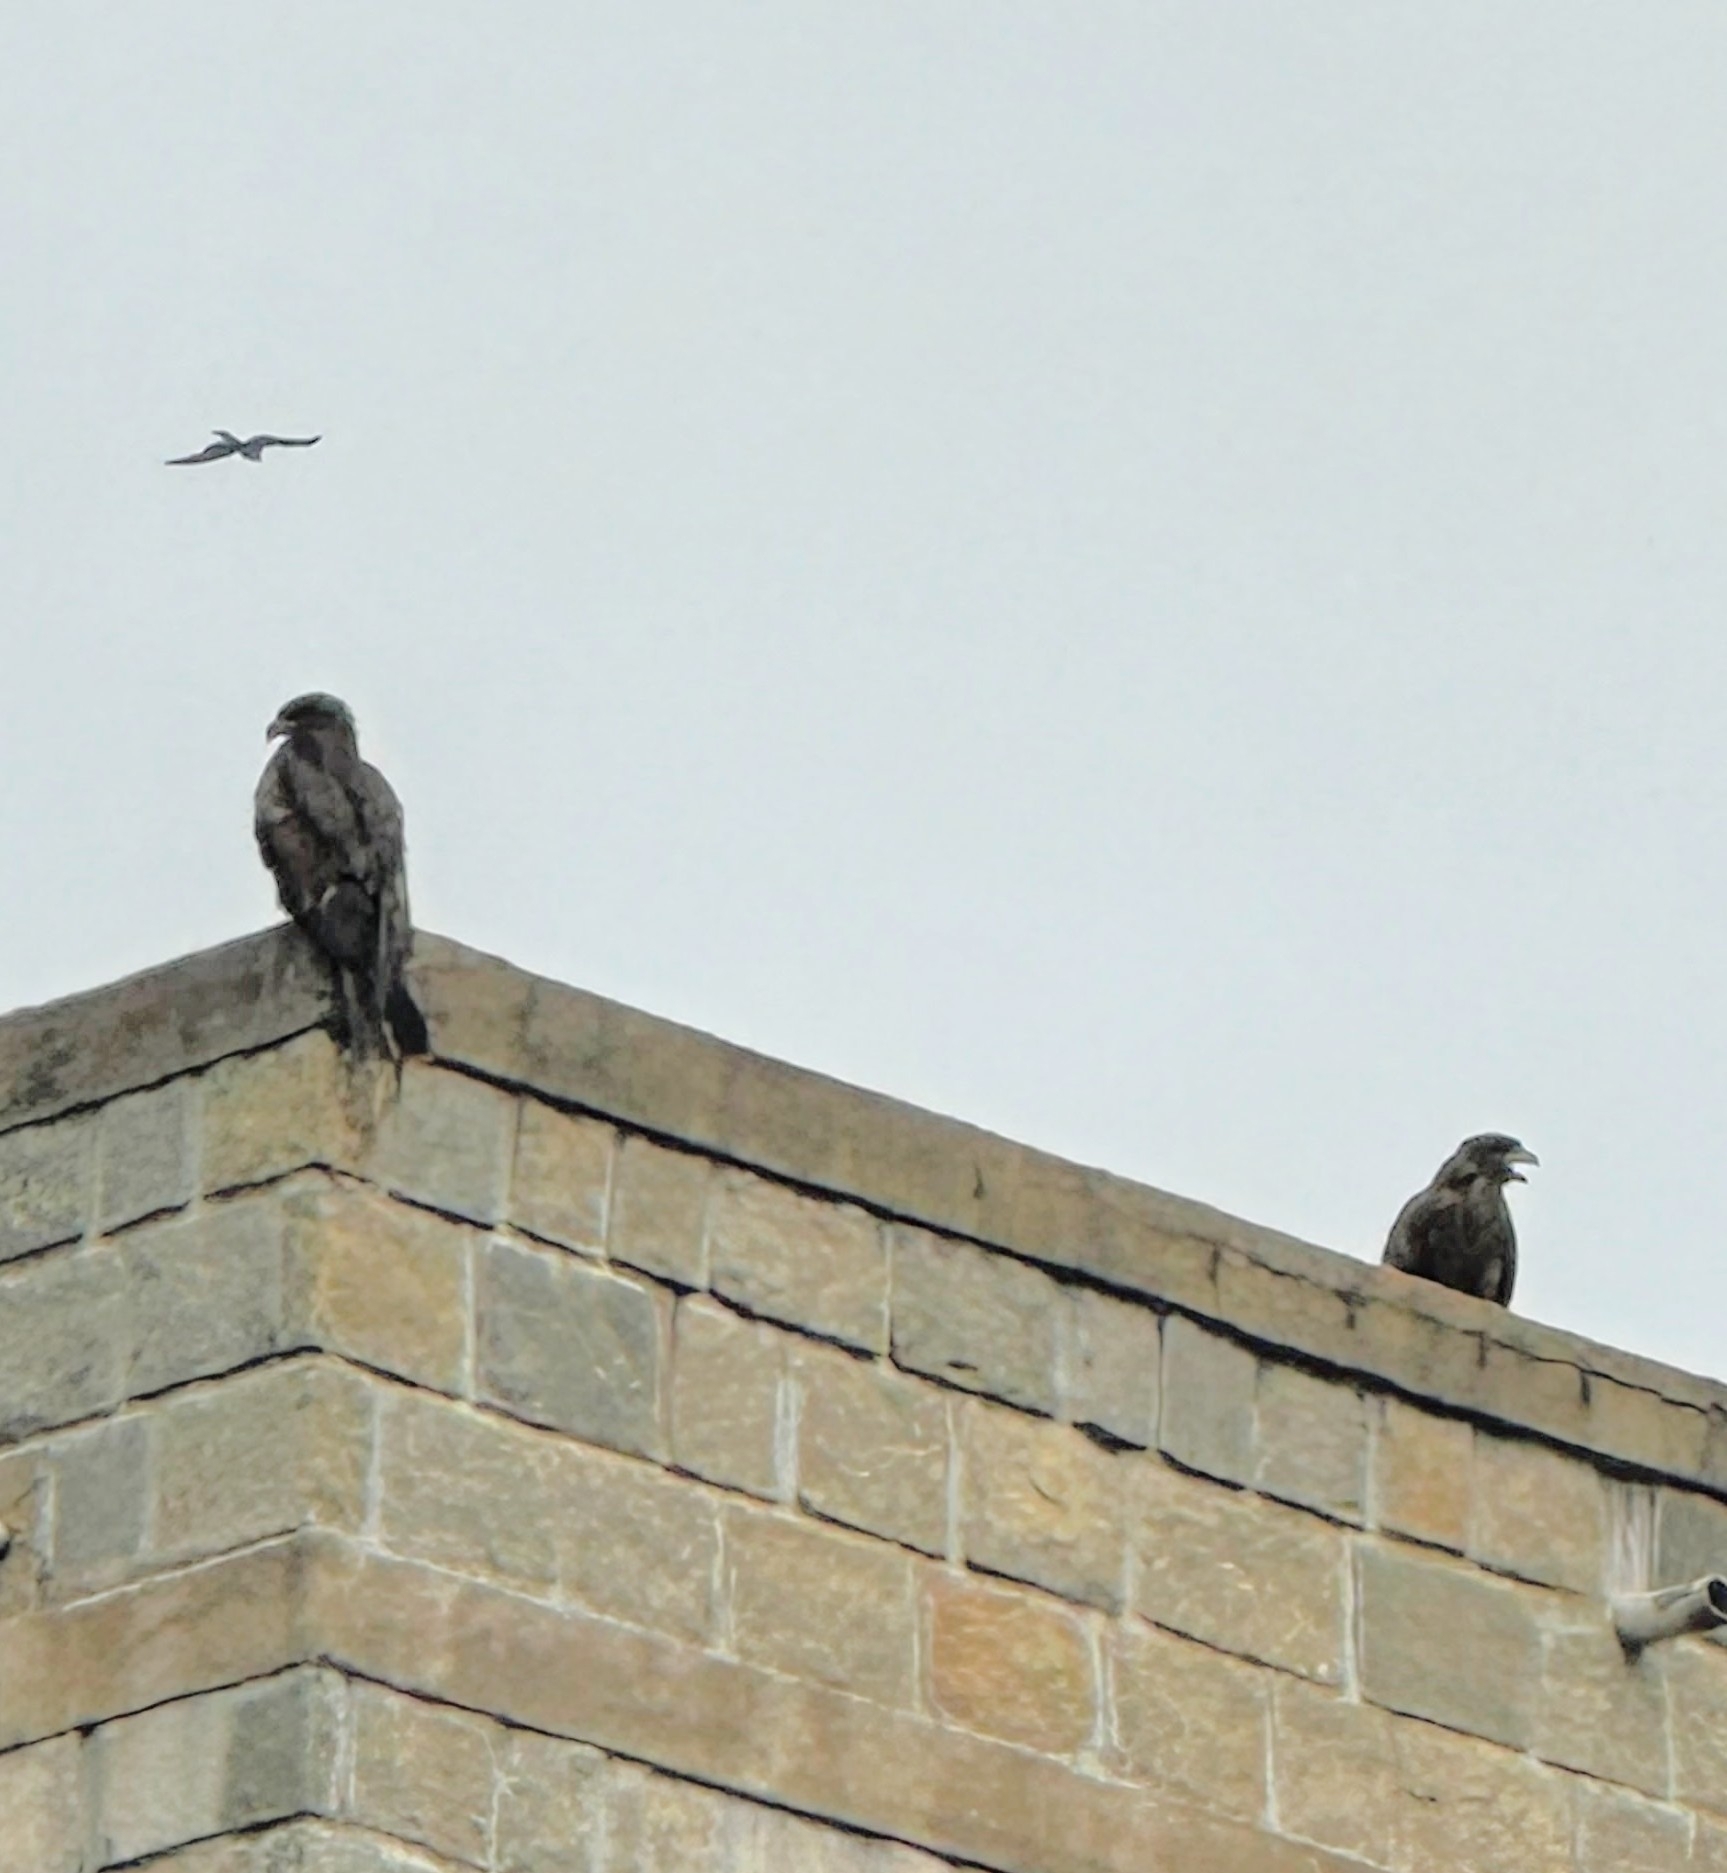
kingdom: Animalia
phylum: Chordata
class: Aves
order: Accipitriformes
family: Accipitridae
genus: Milvus
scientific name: Milvus migrans
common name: Black kite
